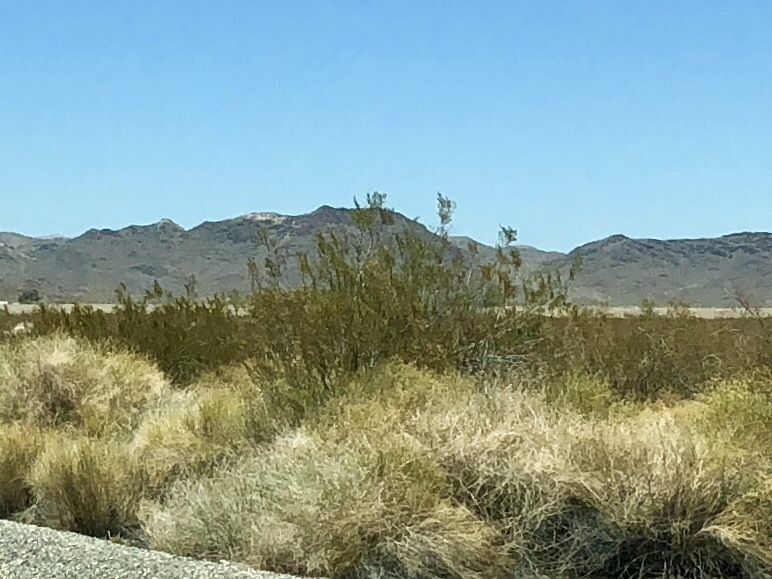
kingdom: Plantae
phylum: Tracheophyta
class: Magnoliopsida
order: Zygophyllales
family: Zygophyllaceae
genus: Larrea
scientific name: Larrea tridentata
